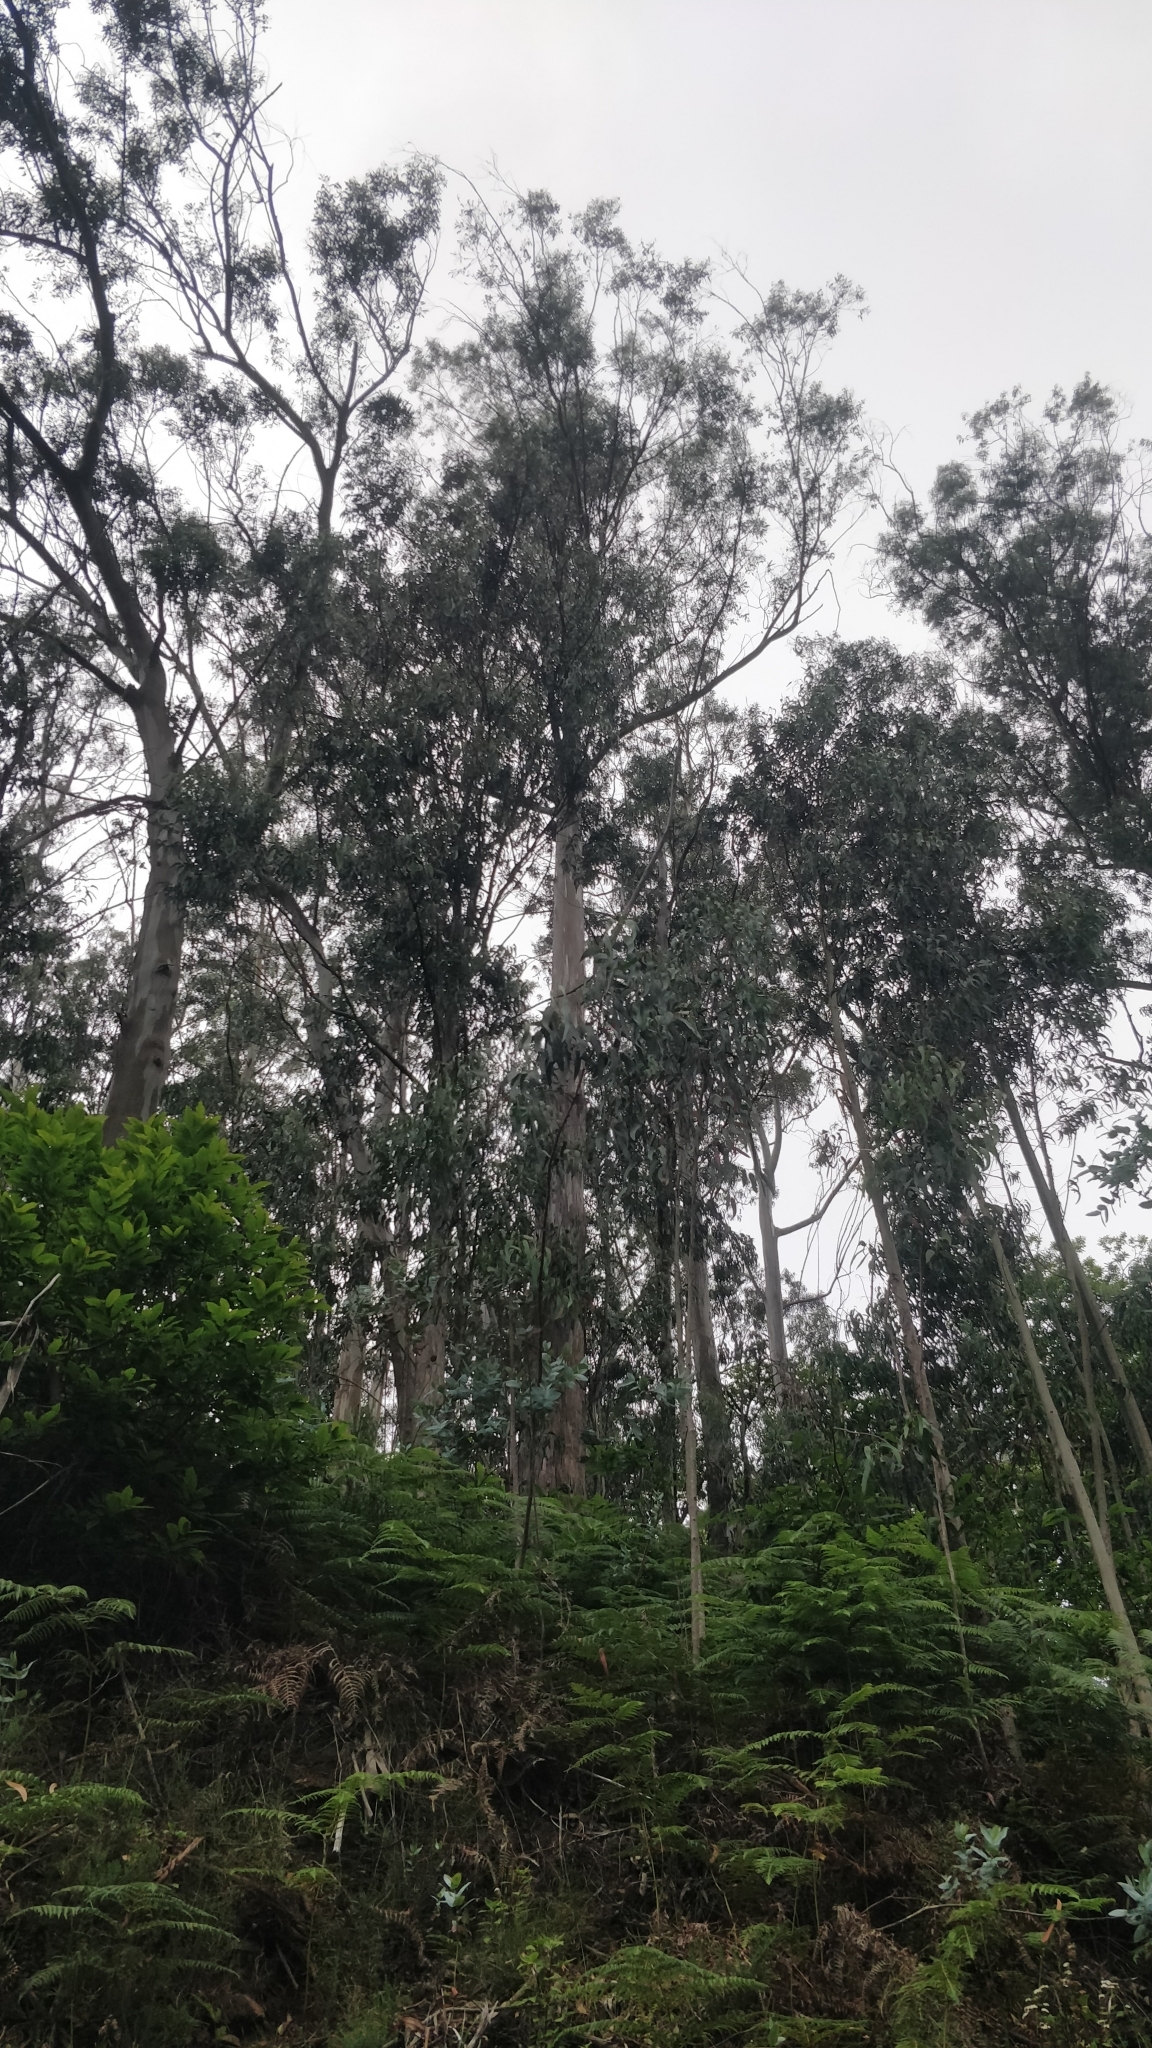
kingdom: Plantae
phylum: Tracheophyta
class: Magnoliopsida
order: Myrtales
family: Myrtaceae
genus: Eucalyptus
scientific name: Eucalyptus globulus
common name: Southern blue-gum
